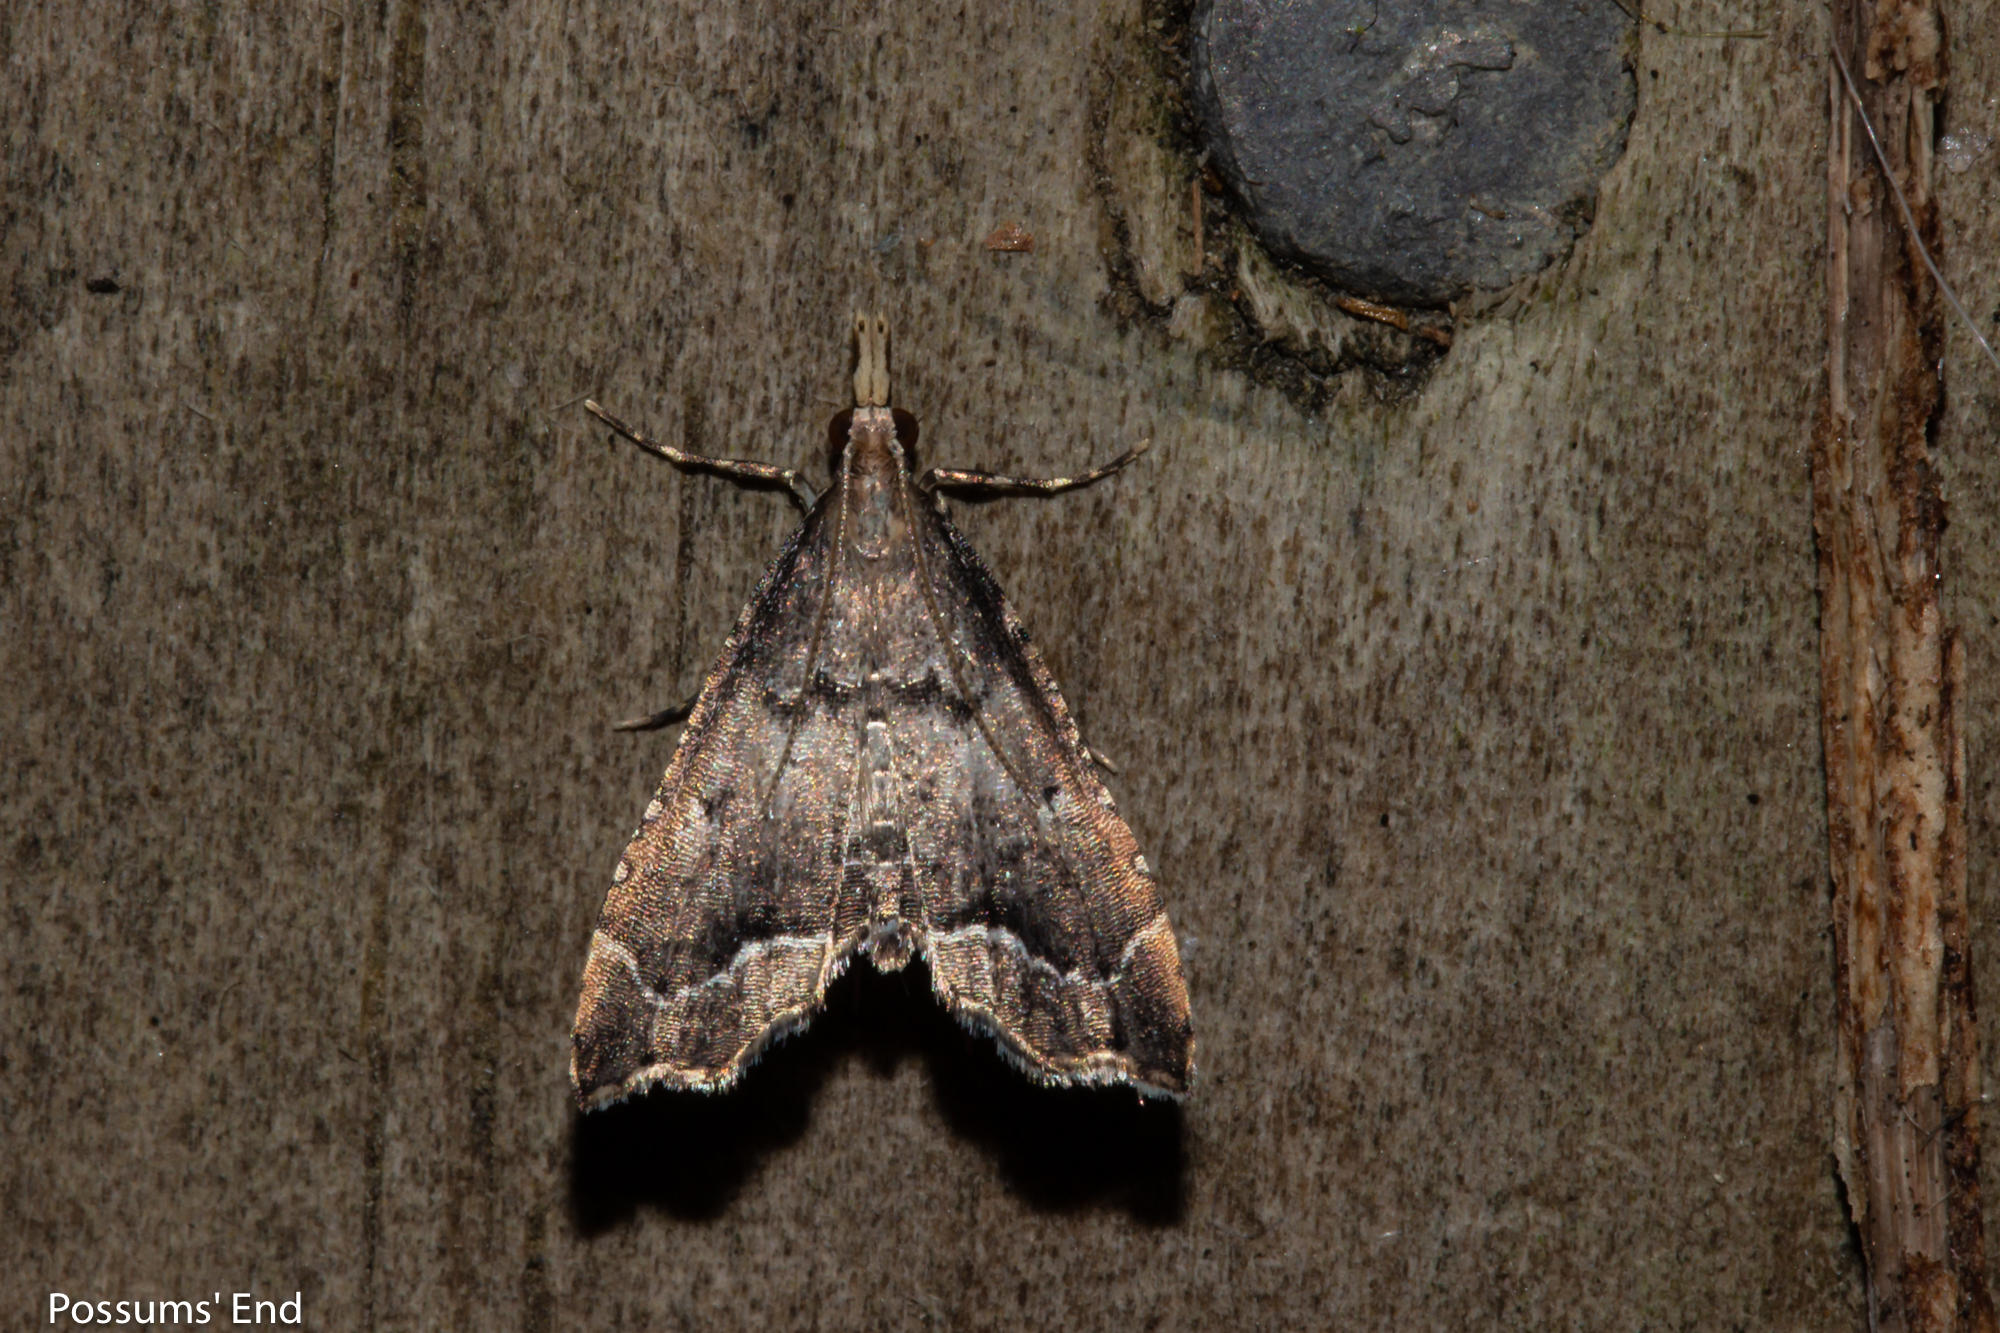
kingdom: Animalia
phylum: Arthropoda
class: Insecta
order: Lepidoptera
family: Crambidae
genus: Diplopseustis
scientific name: Diplopseustis perieresalis
